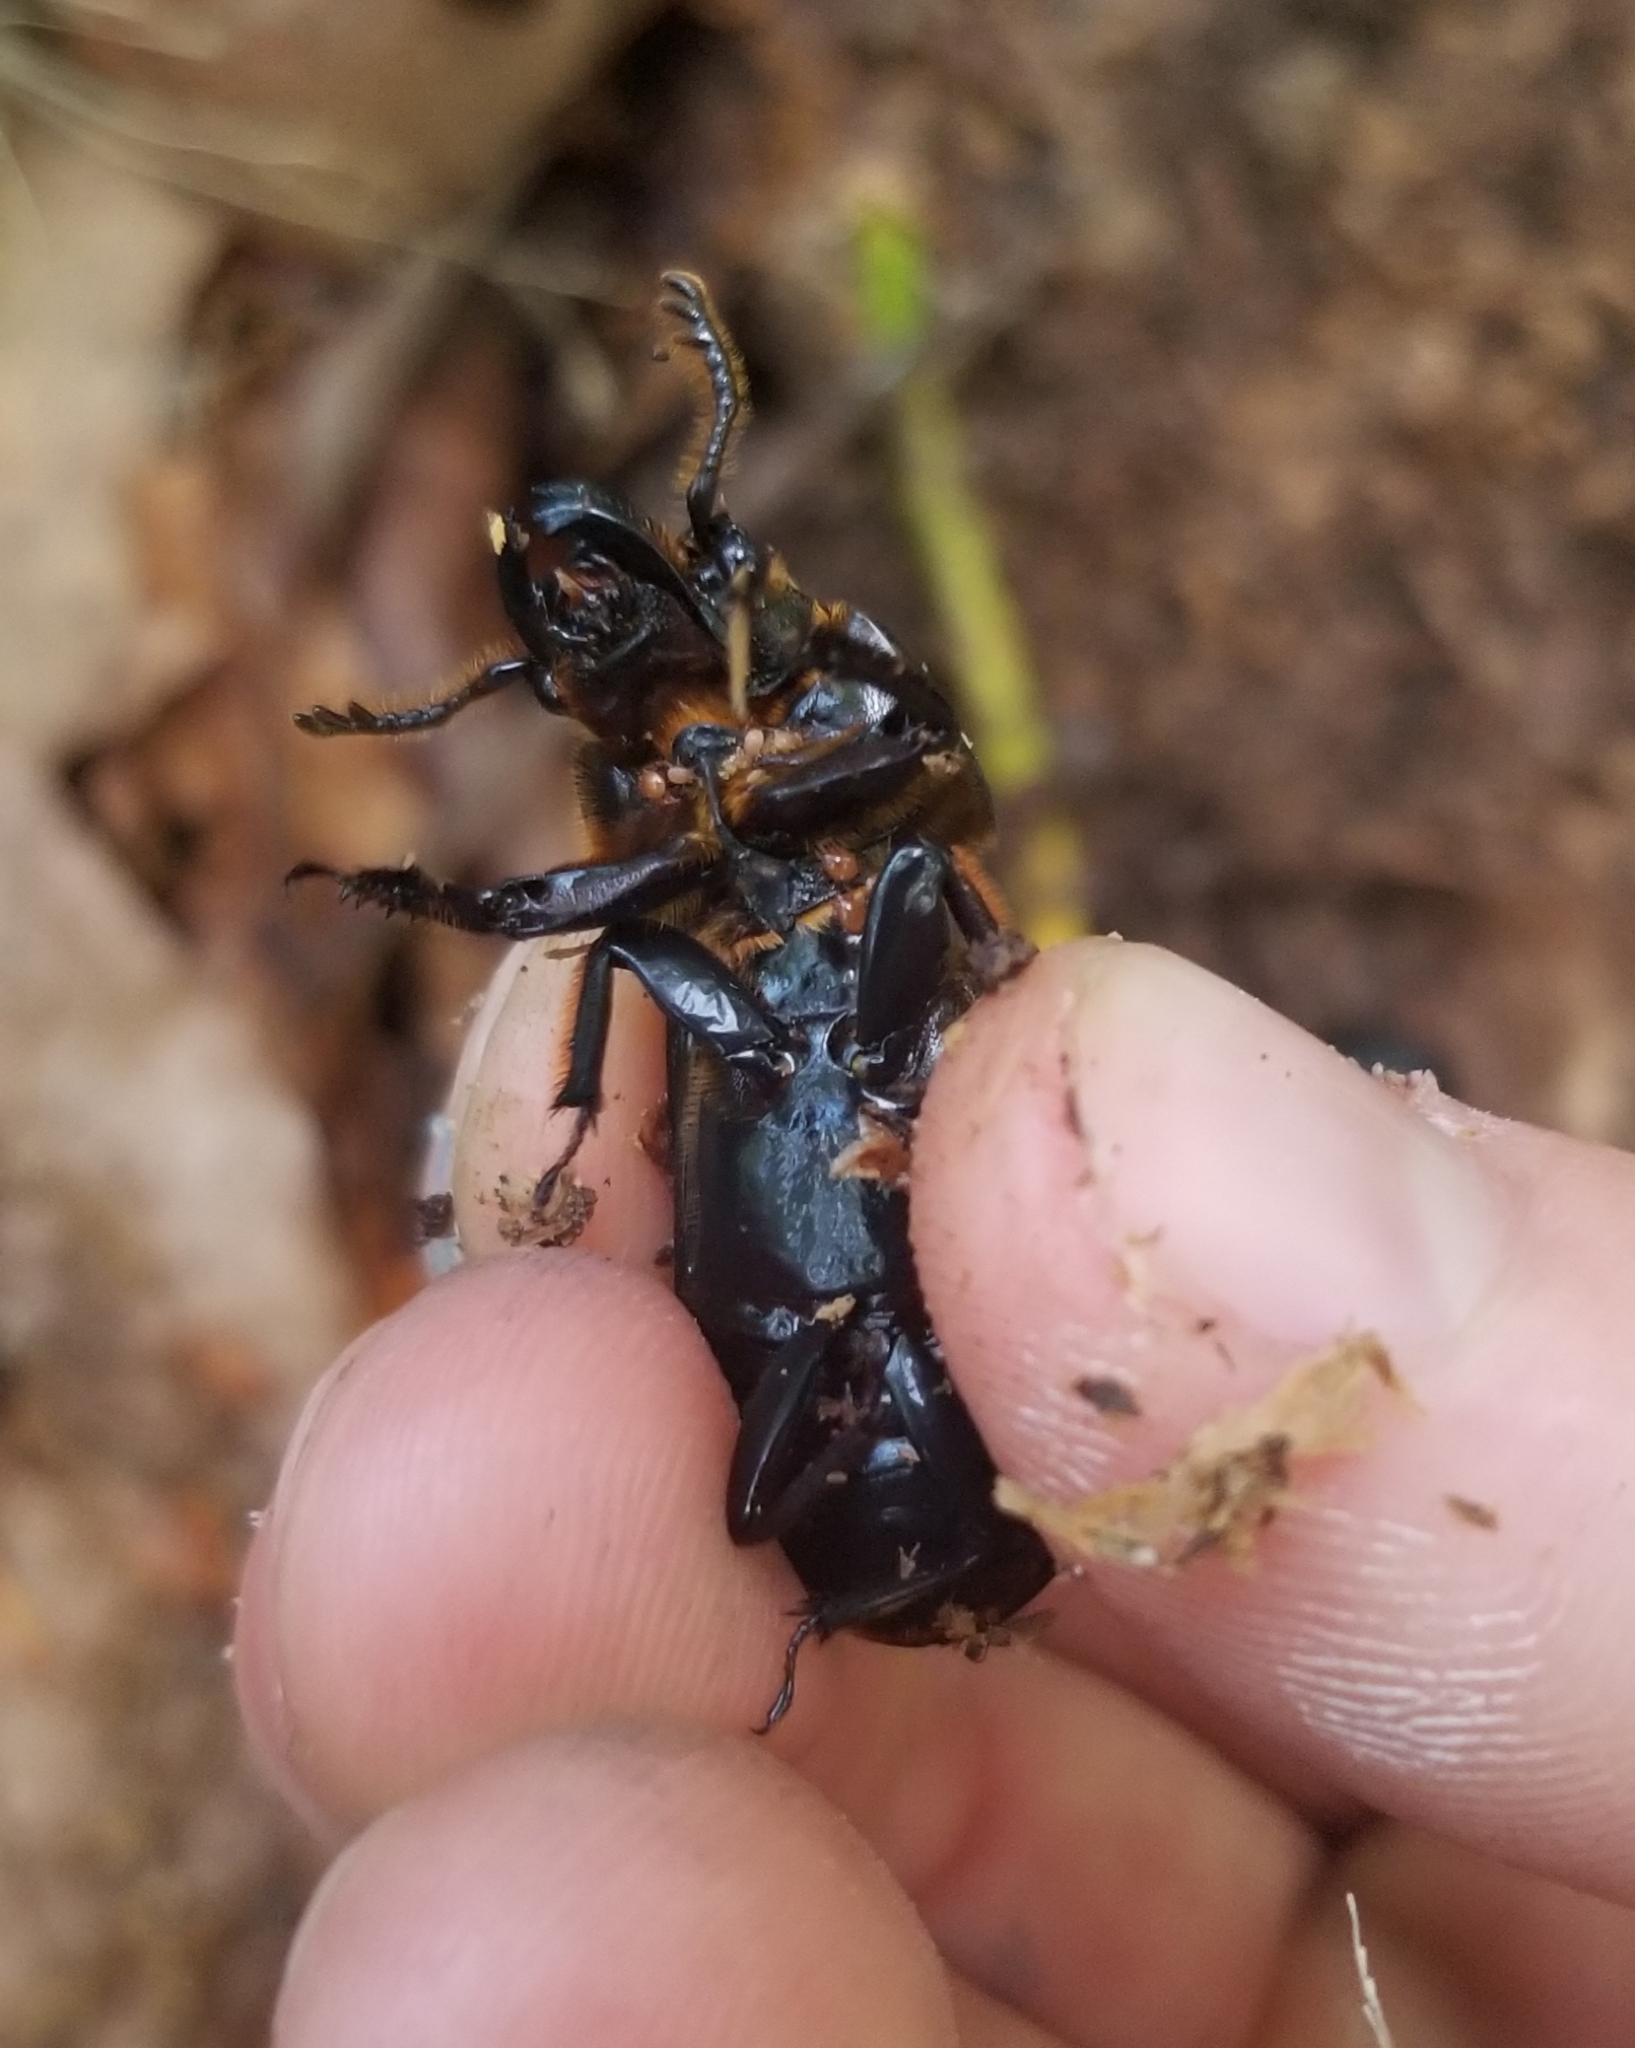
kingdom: Animalia
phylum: Arthropoda
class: Insecta
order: Coleoptera
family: Passalidae
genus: Odontotaenius
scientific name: Odontotaenius disjunctus
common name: Patent leather beetle
